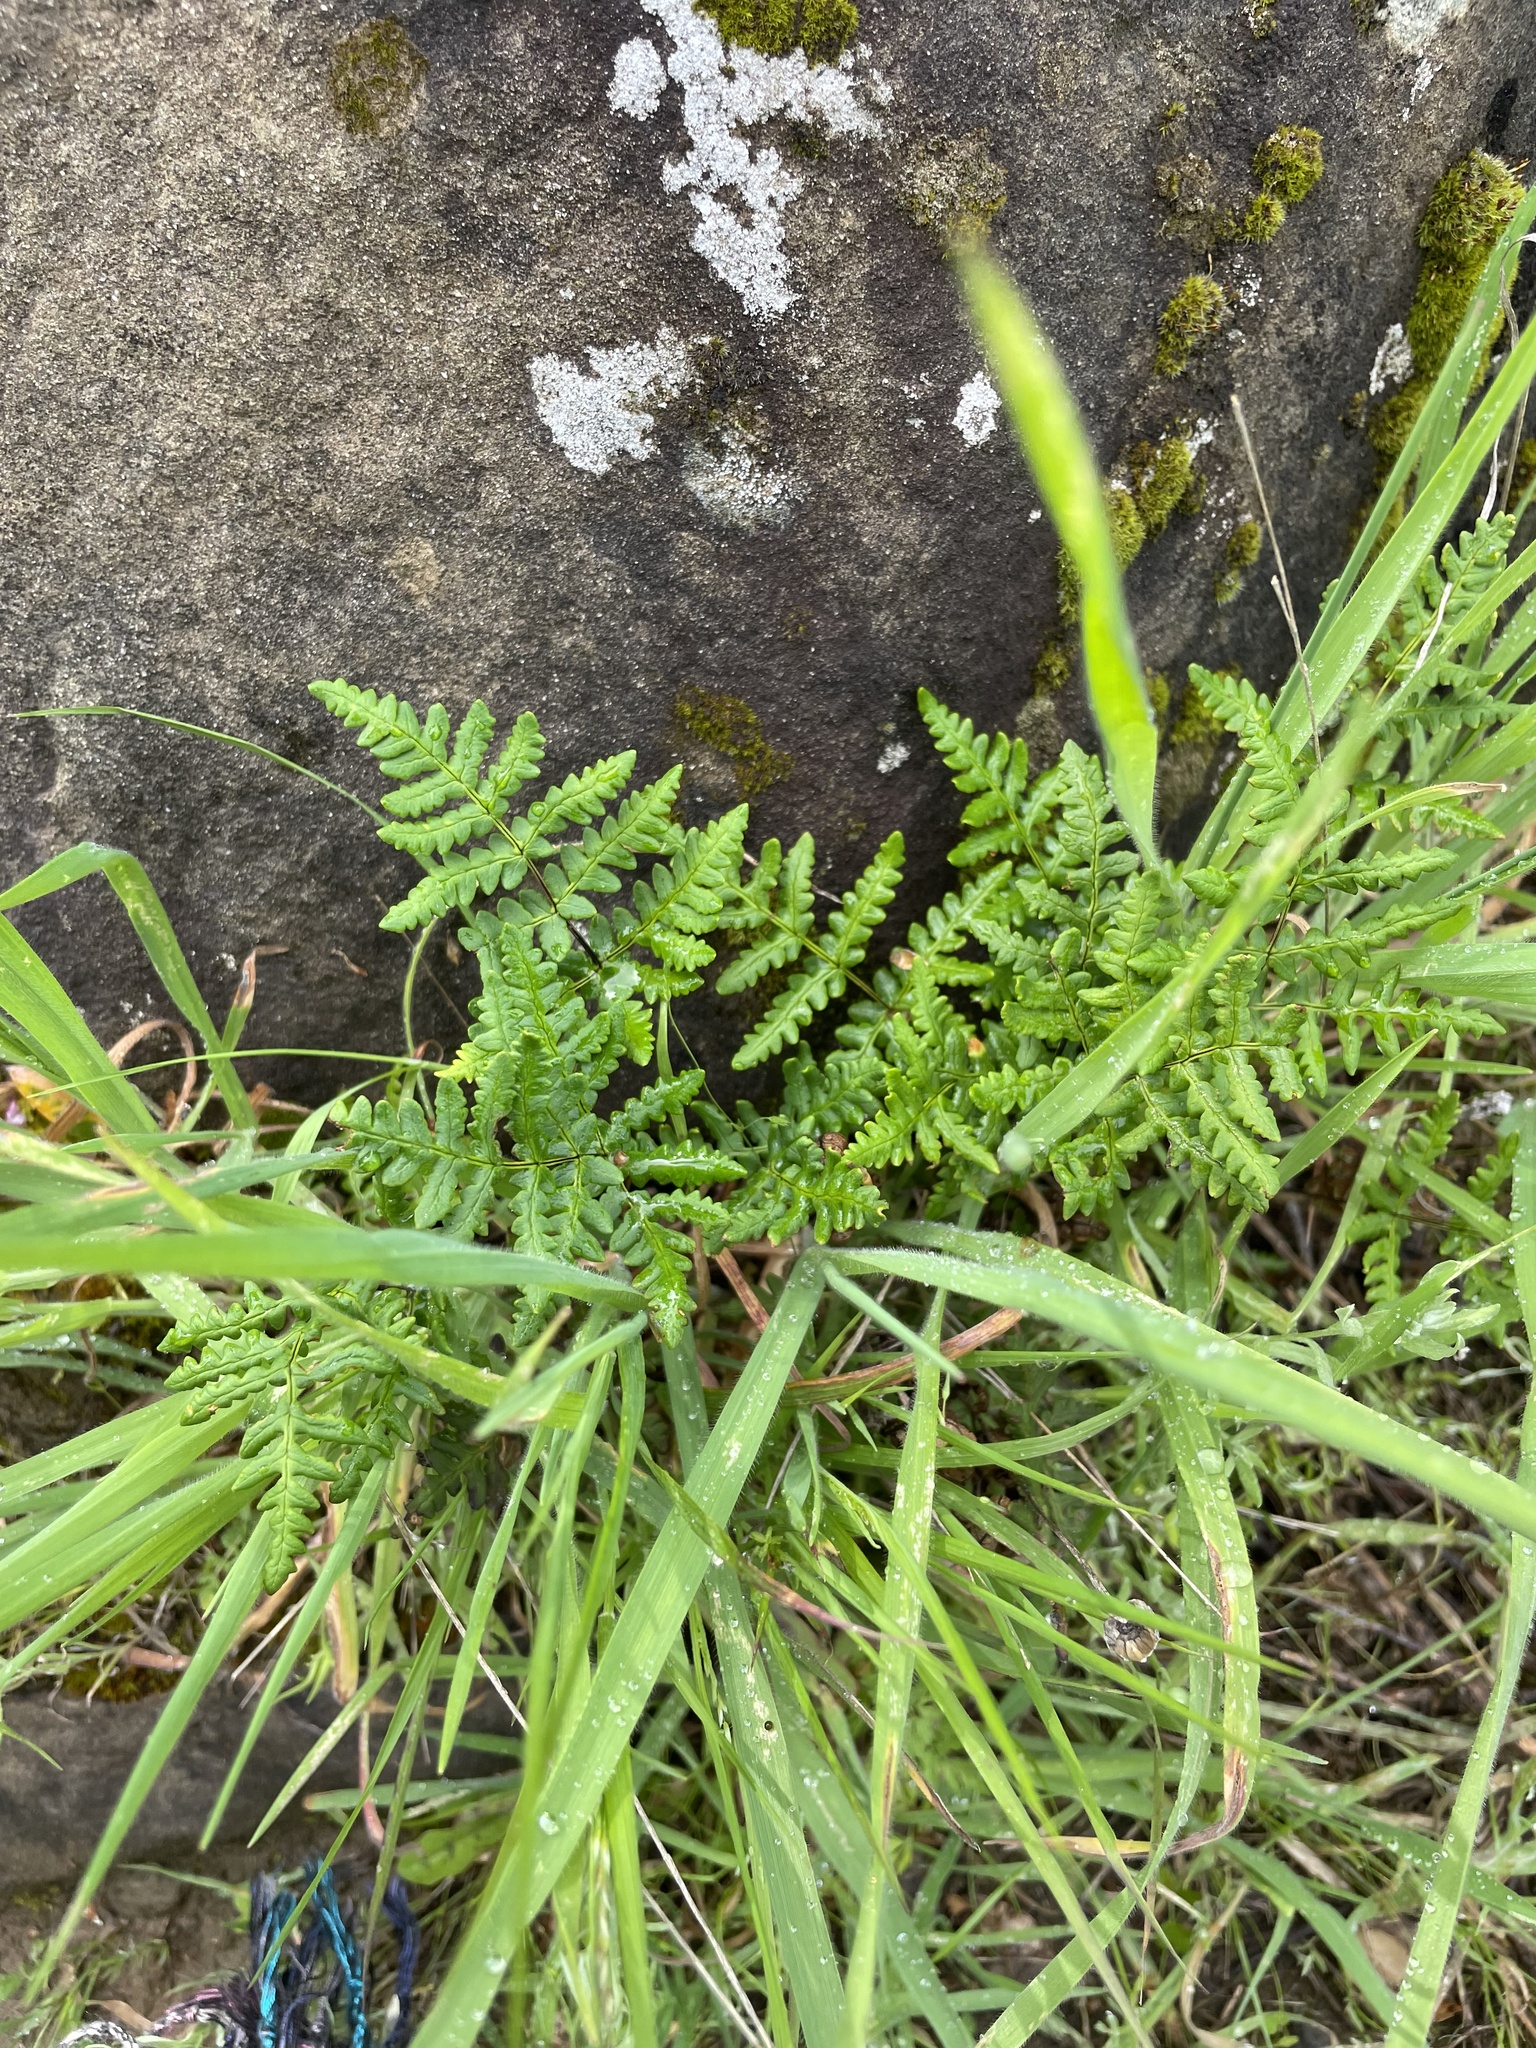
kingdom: Plantae
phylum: Tracheophyta
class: Polypodiopsida
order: Polypodiales
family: Pteridaceae
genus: Pentagramma
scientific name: Pentagramma triangularis
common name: Gold fern
